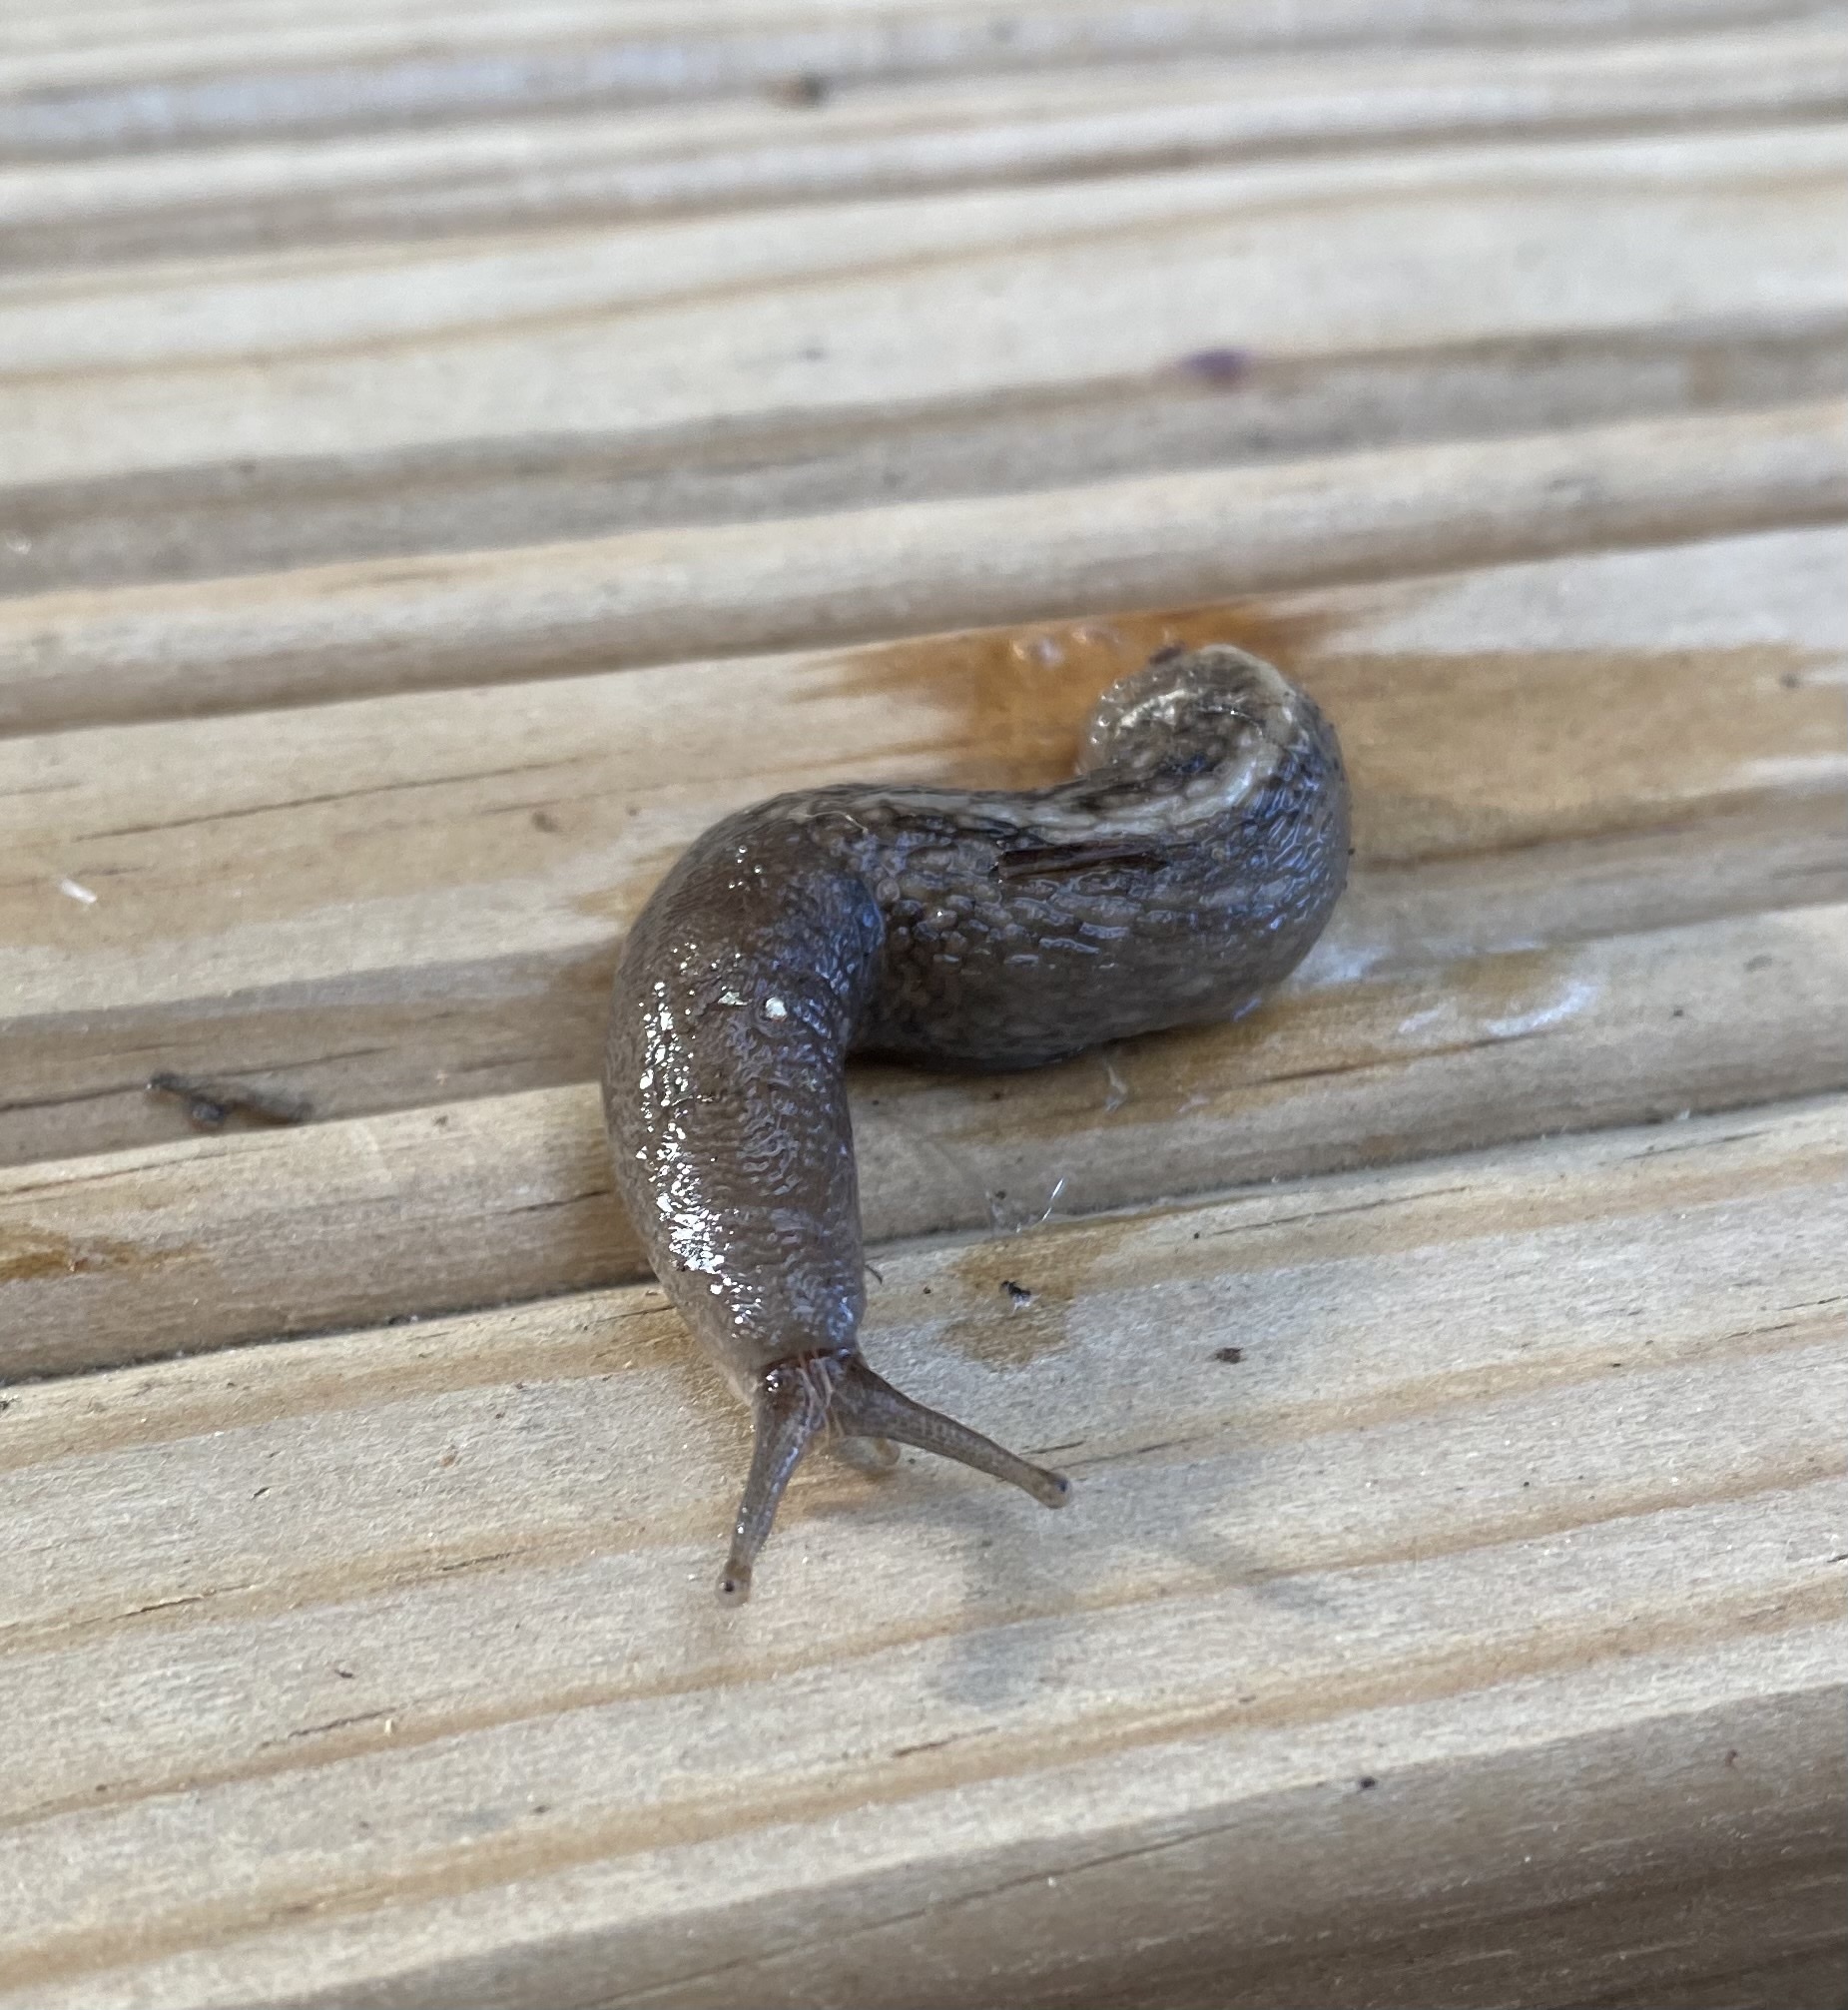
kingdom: Animalia
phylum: Mollusca
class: Gastropoda
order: Stylommatophora
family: Limacidae
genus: Limax
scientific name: Limax cinereoniger
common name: Ash-black slug
